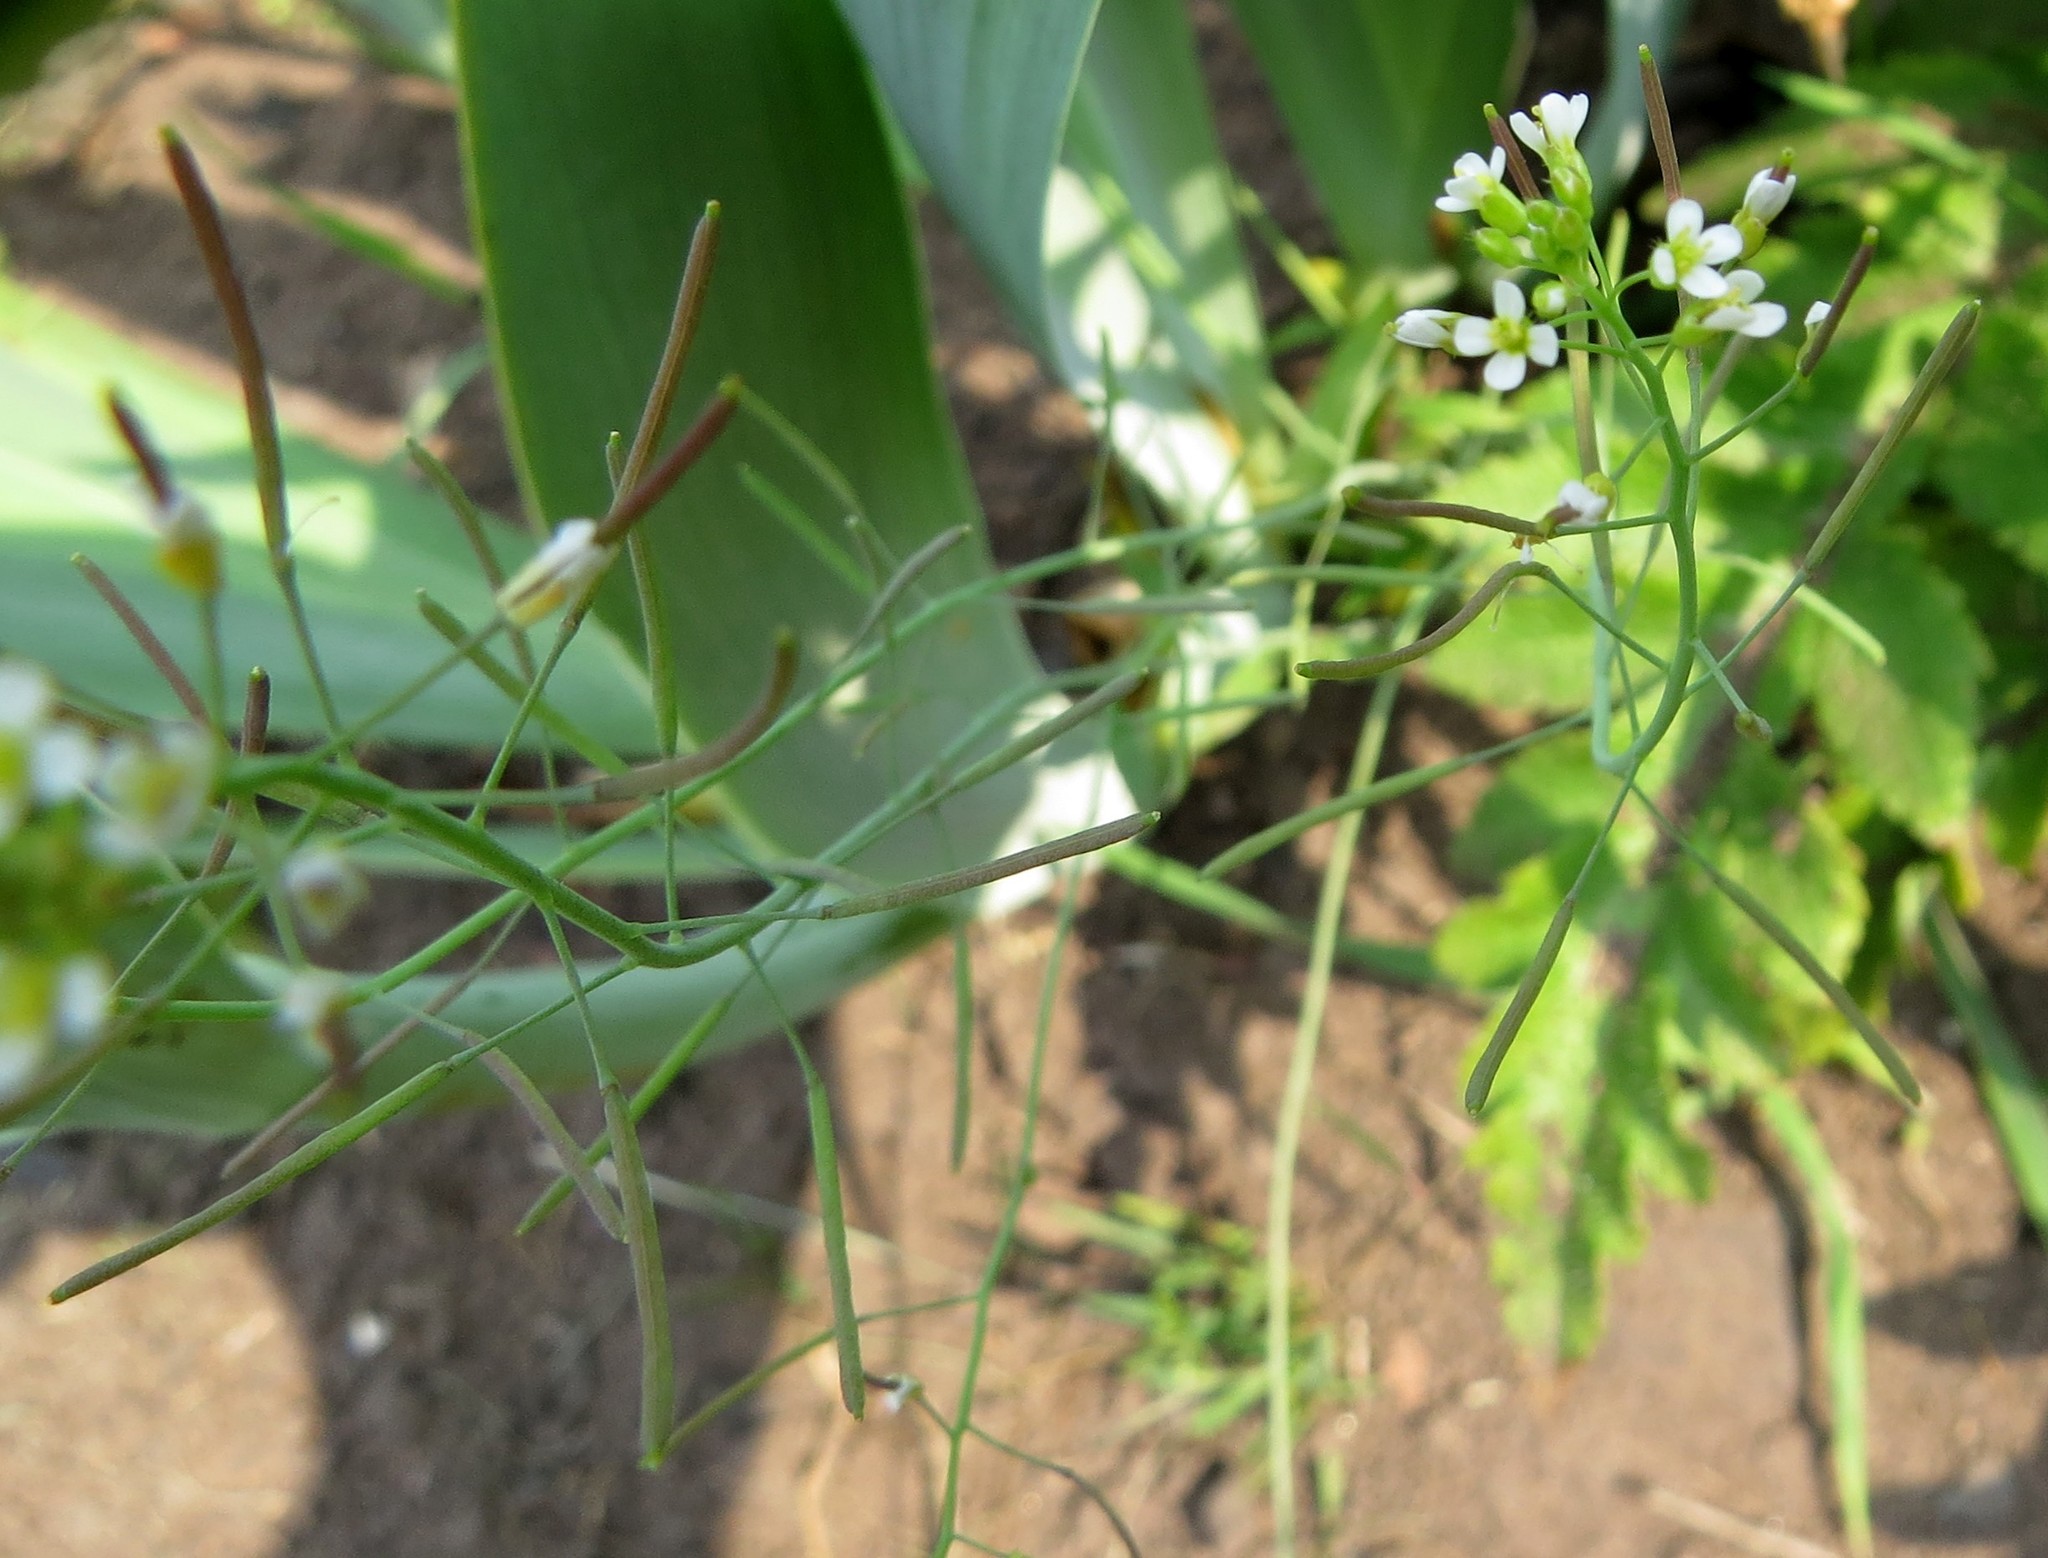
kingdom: Plantae
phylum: Tracheophyta
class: Magnoliopsida
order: Brassicales
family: Brassicaceae
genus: Arabidopsis
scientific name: Arabidopsis thaliana
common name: Thale cress
